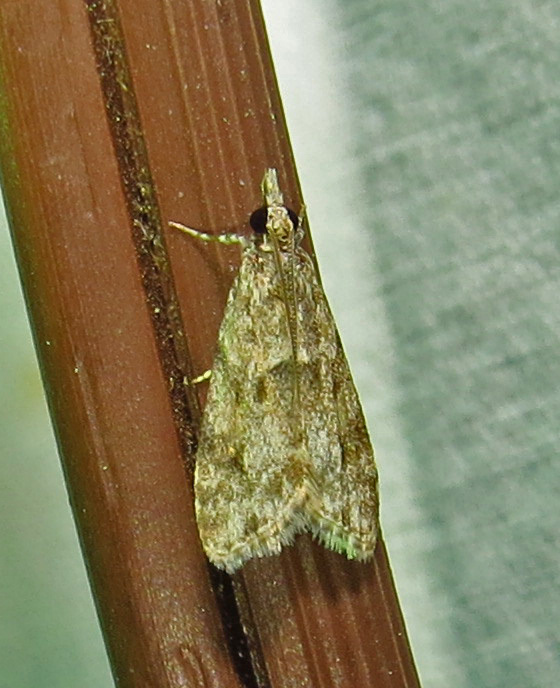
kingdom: Animalia
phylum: Arthropoda
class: Insecta
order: Lepidoptera
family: Crambidae
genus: Eudonia
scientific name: Eudonia heterosalis
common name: Mcdunnough's eudonia
